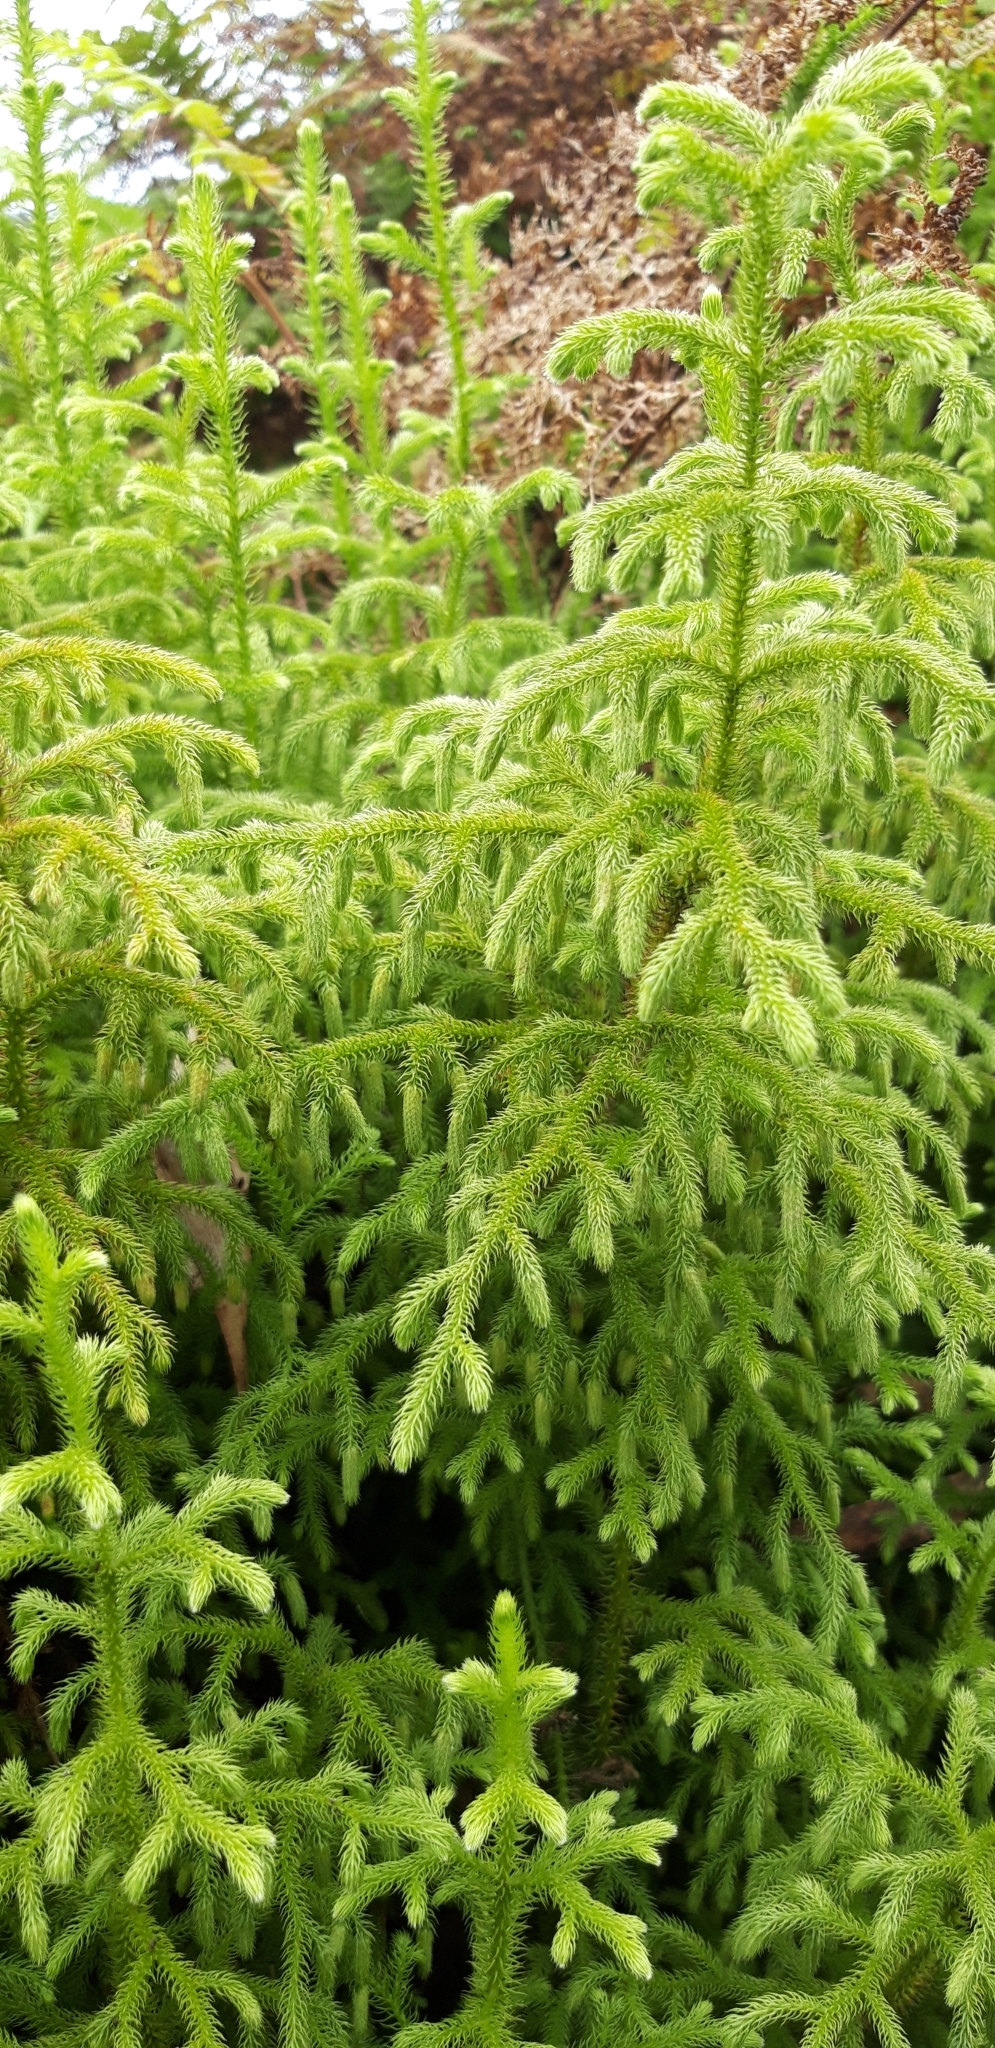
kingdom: Plantae
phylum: Tracheophyta
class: Lycopodiopsida
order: Lycopodiales
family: Lycopodiaceae
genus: Palhinhaea
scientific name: Palhinhaea cernua
